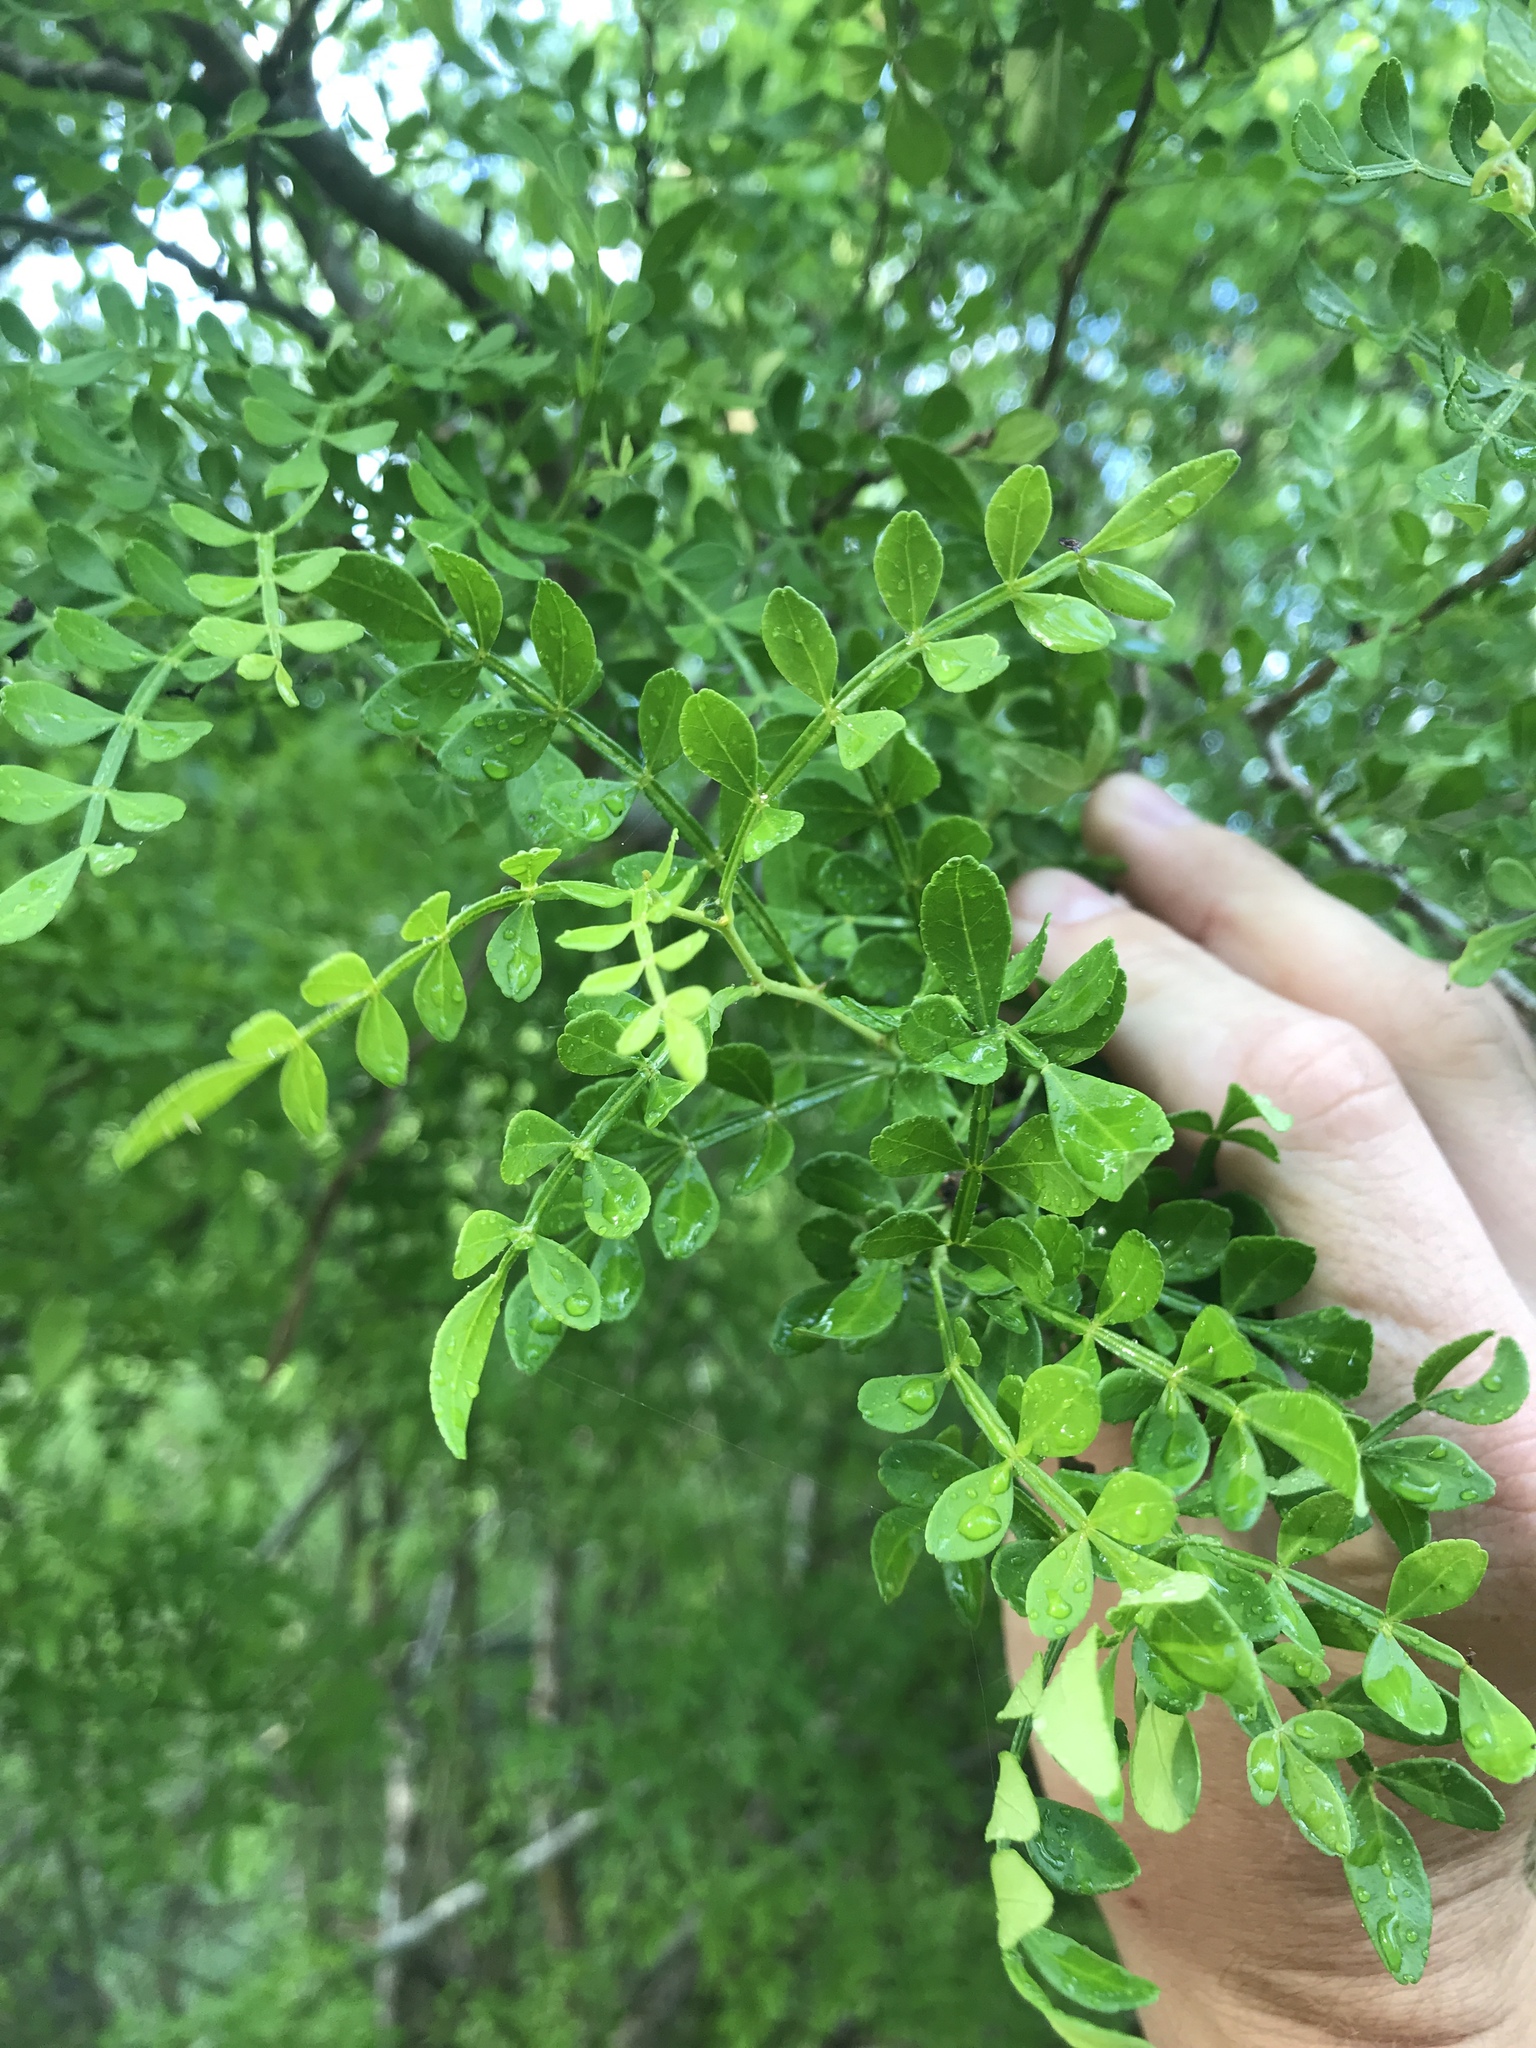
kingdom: Plantae
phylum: Tracheophyta
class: Magnoliopsida
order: Sapindales
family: Rutaceae
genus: Zanthoxylum
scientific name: Zanthoxylum fagara
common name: Lime prickly-ash
